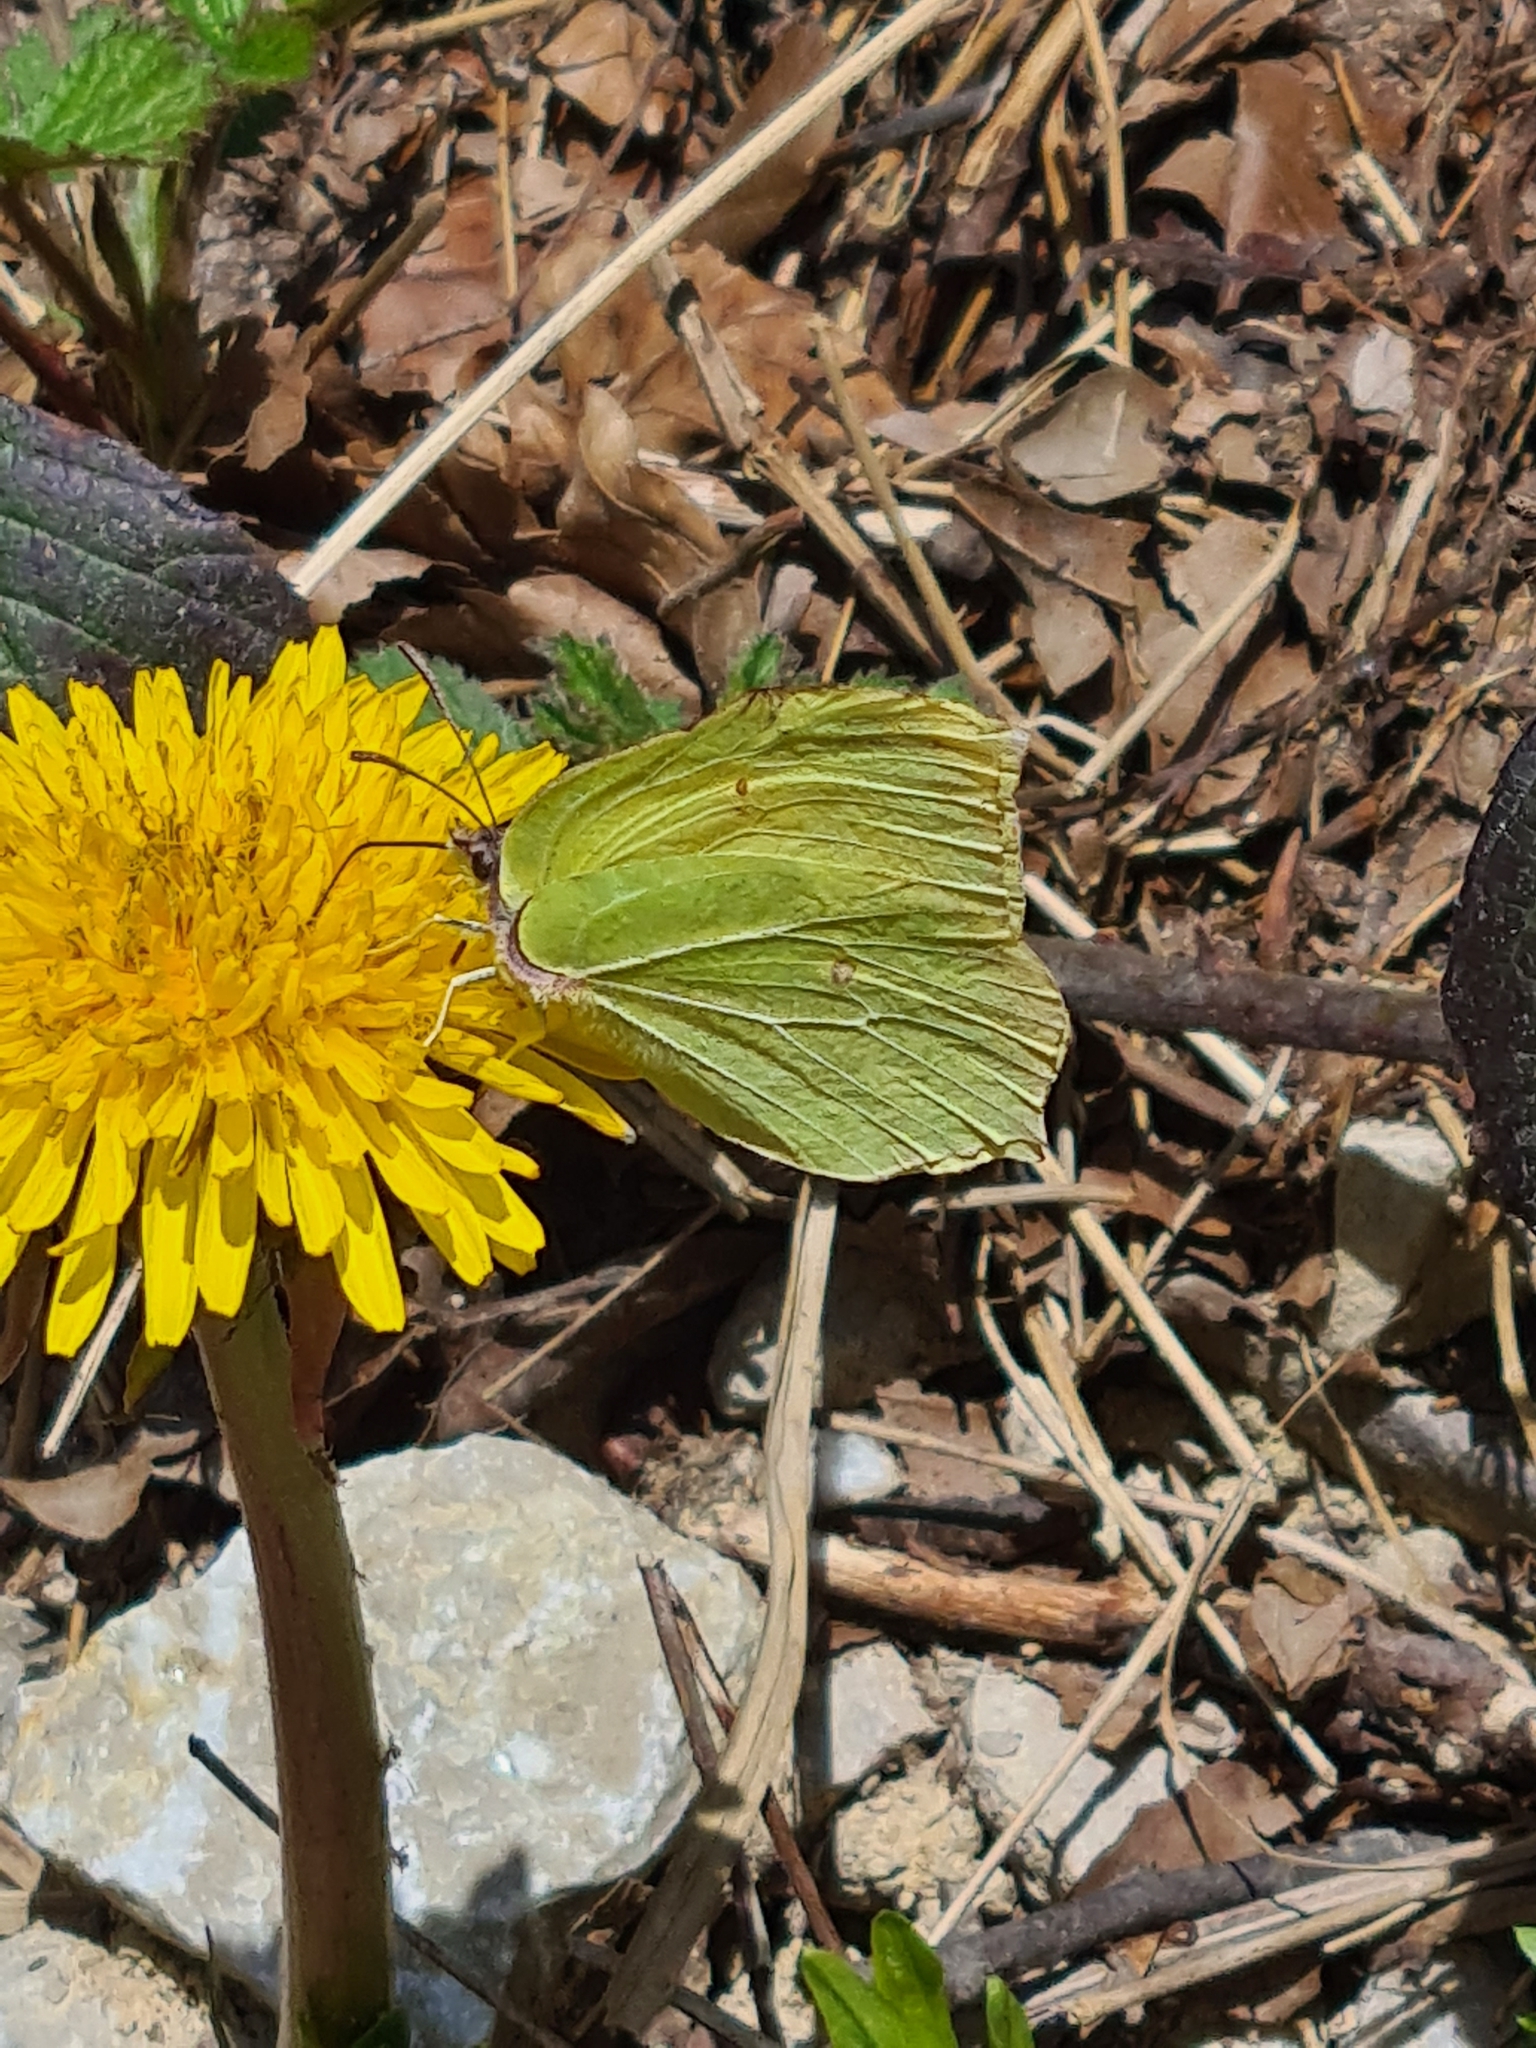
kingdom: Animalia
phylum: Arthropoda
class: Insecta
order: Lepidoptera
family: Pieridae
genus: Gonepteryx
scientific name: Gonepteryx rhamni
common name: Brimstone
